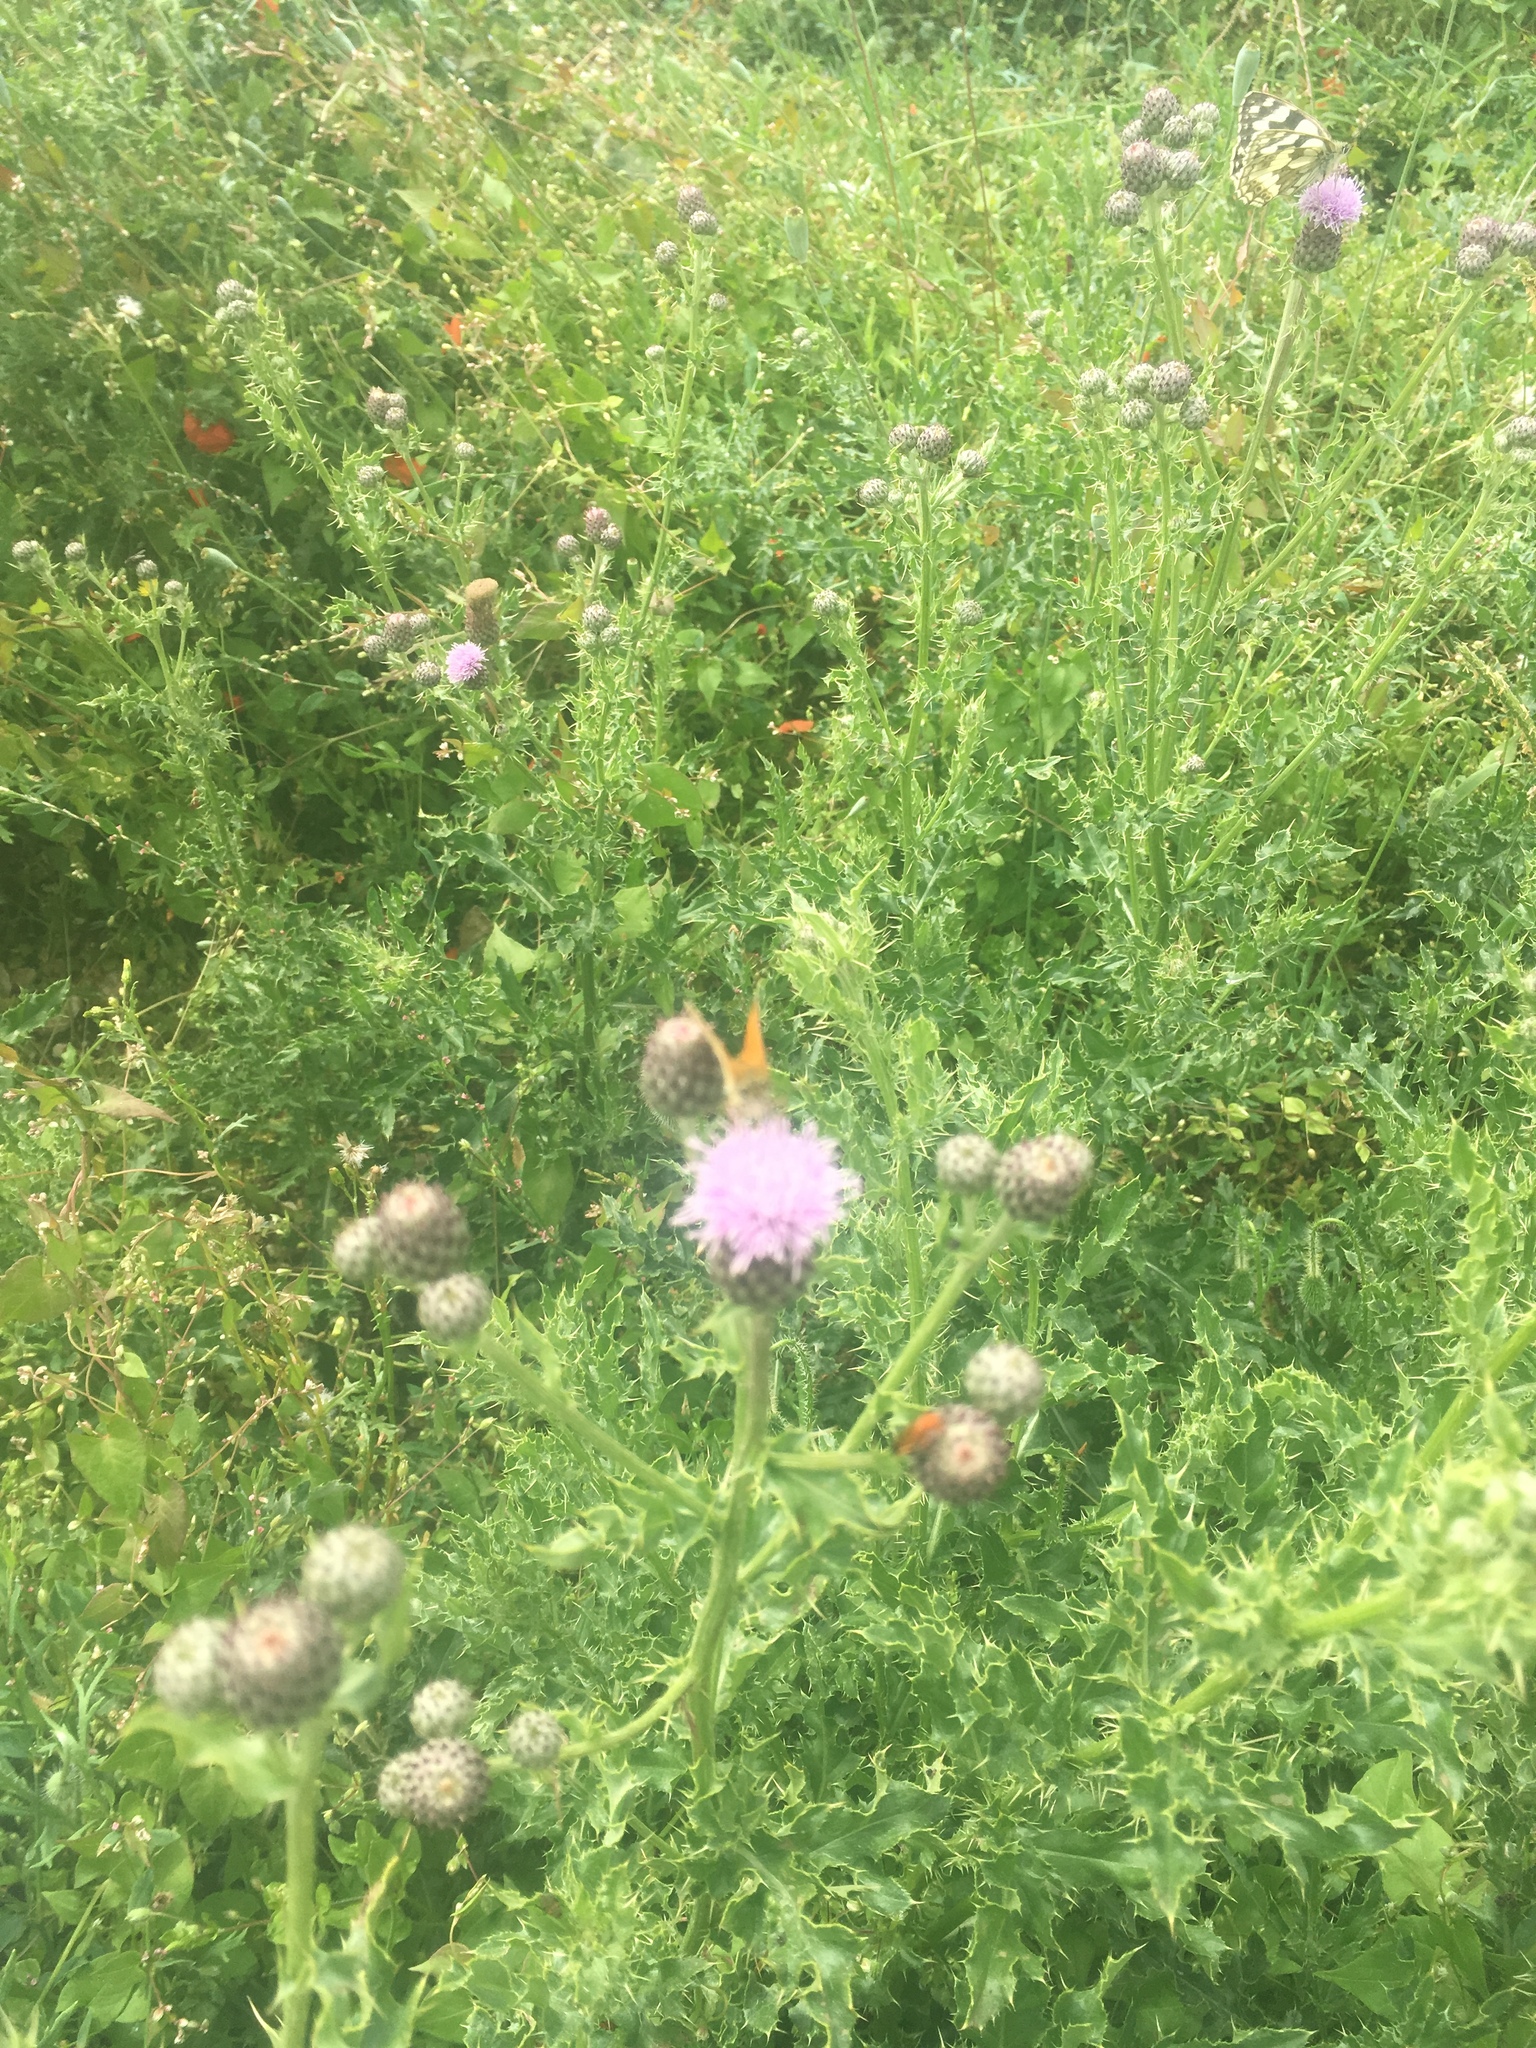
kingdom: Animalia
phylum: Arthropoda
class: Insecta
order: Lepidoptera
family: Nymphalidae
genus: Aphantopus
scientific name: Aphantopus hyperantus
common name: Ringlet
